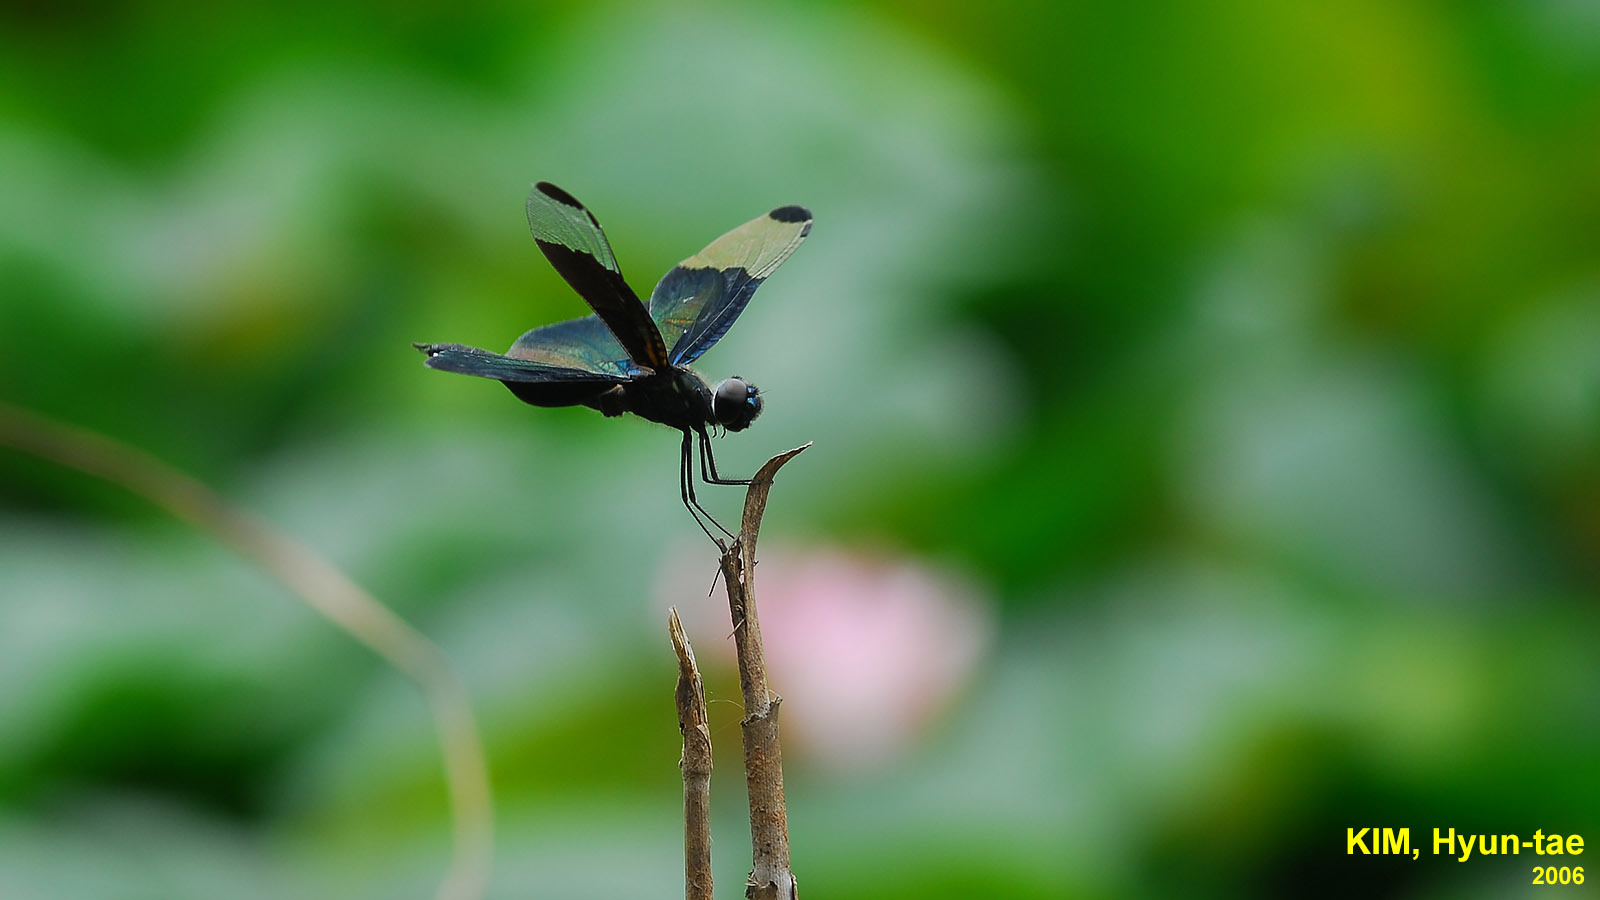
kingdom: Animalia
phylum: Arthropoda
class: Insecta
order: Odonata
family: Libellulidae
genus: Rhyothemis
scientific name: Rhyothemis fuliginosa
